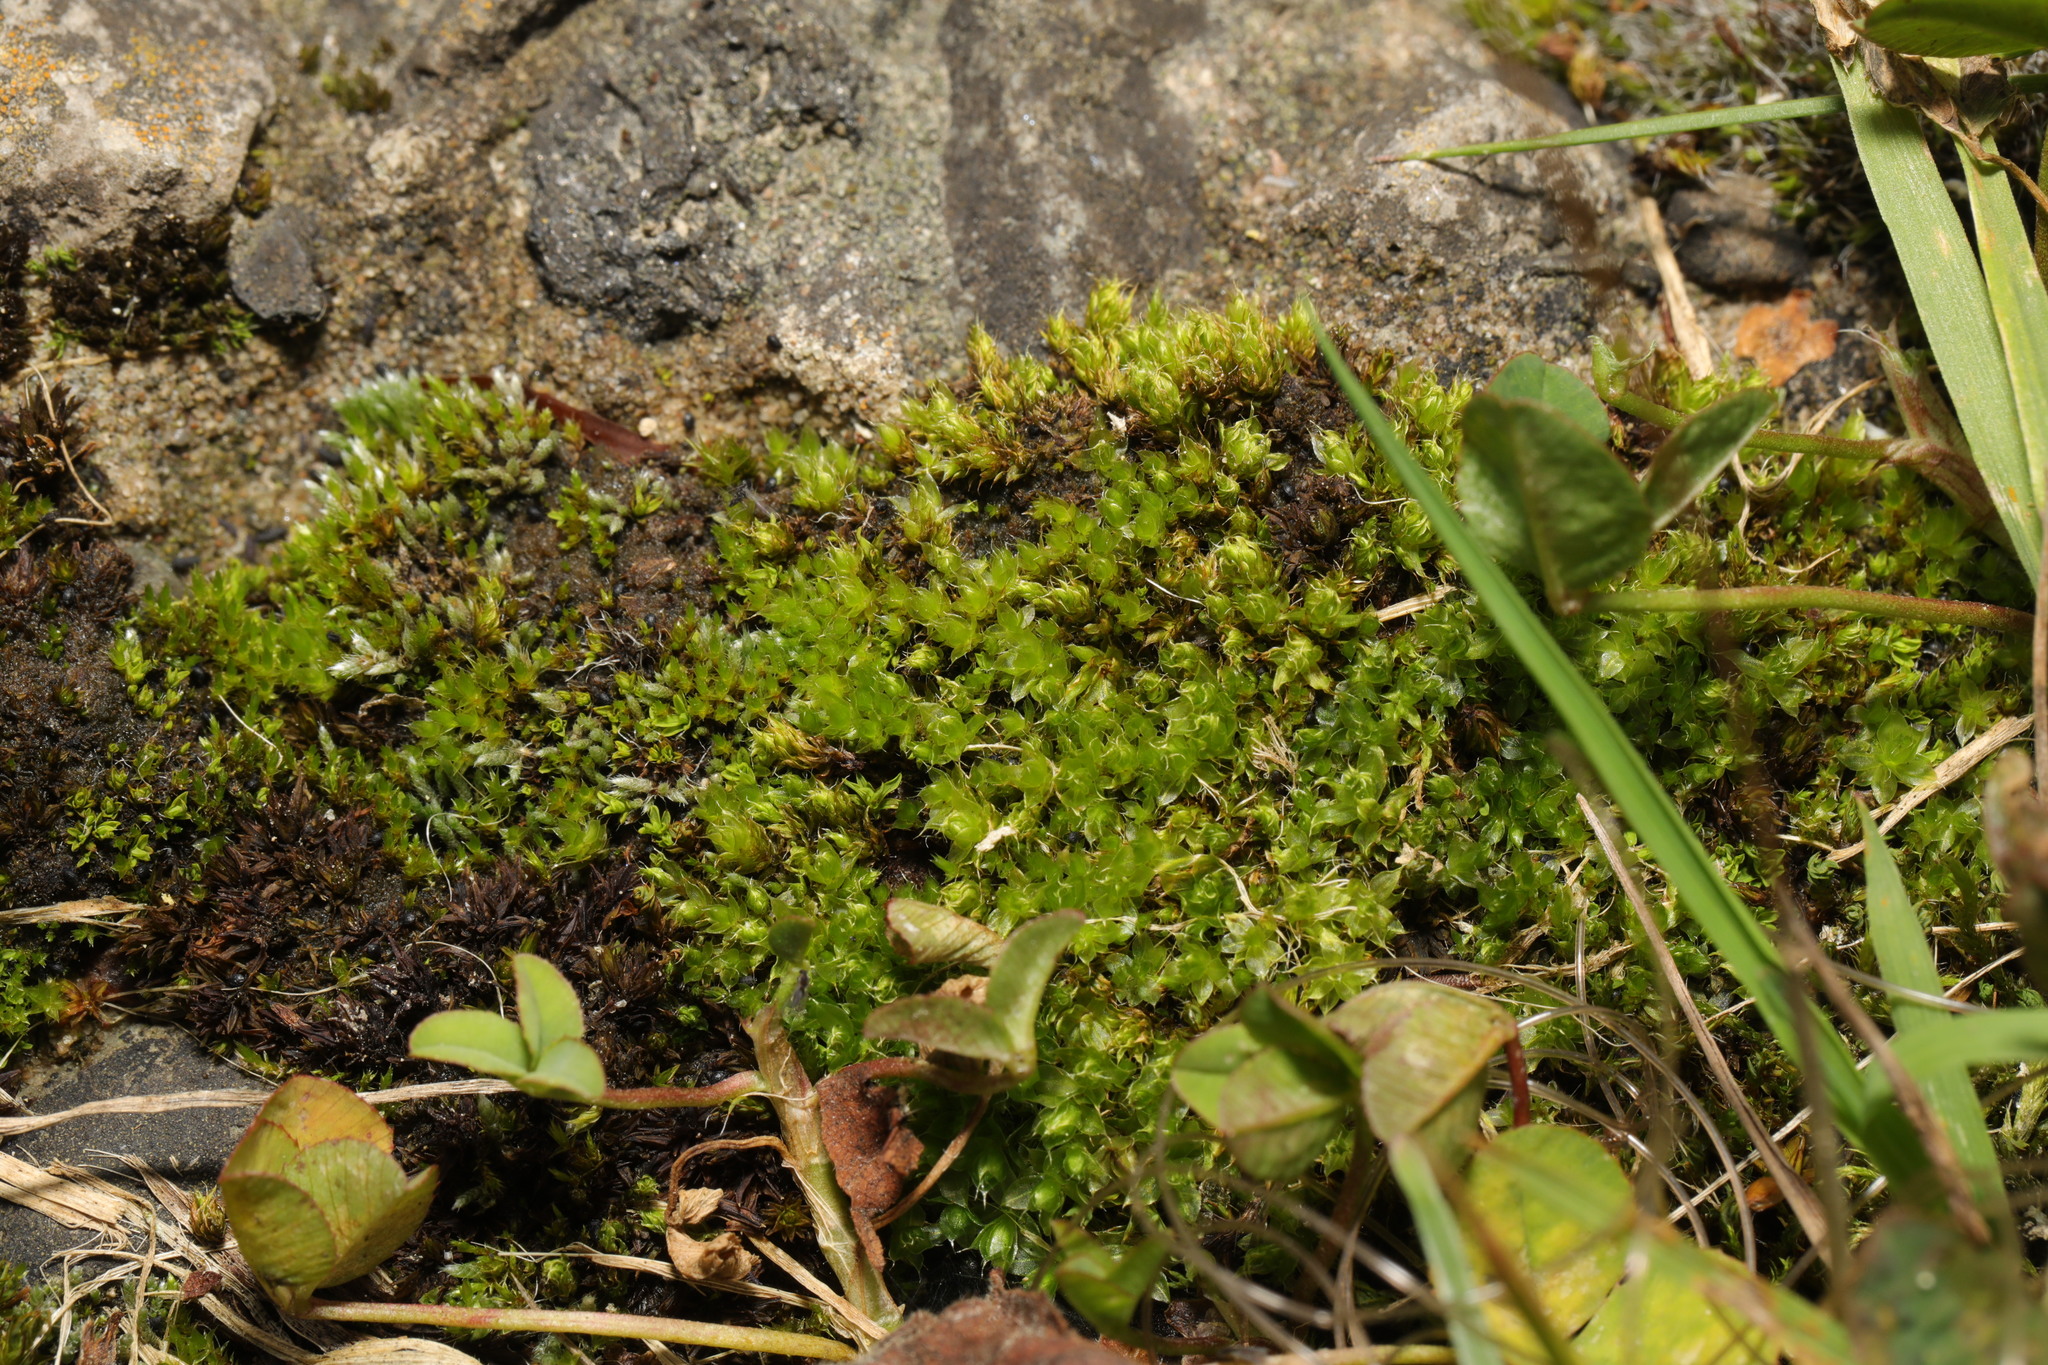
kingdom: Plantae
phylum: Bryophyta
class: Bryopsida
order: Bryales
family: Bryaceae
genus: Rosulabryum
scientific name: Rosulabryum capillare
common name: Capillary thread-moss
